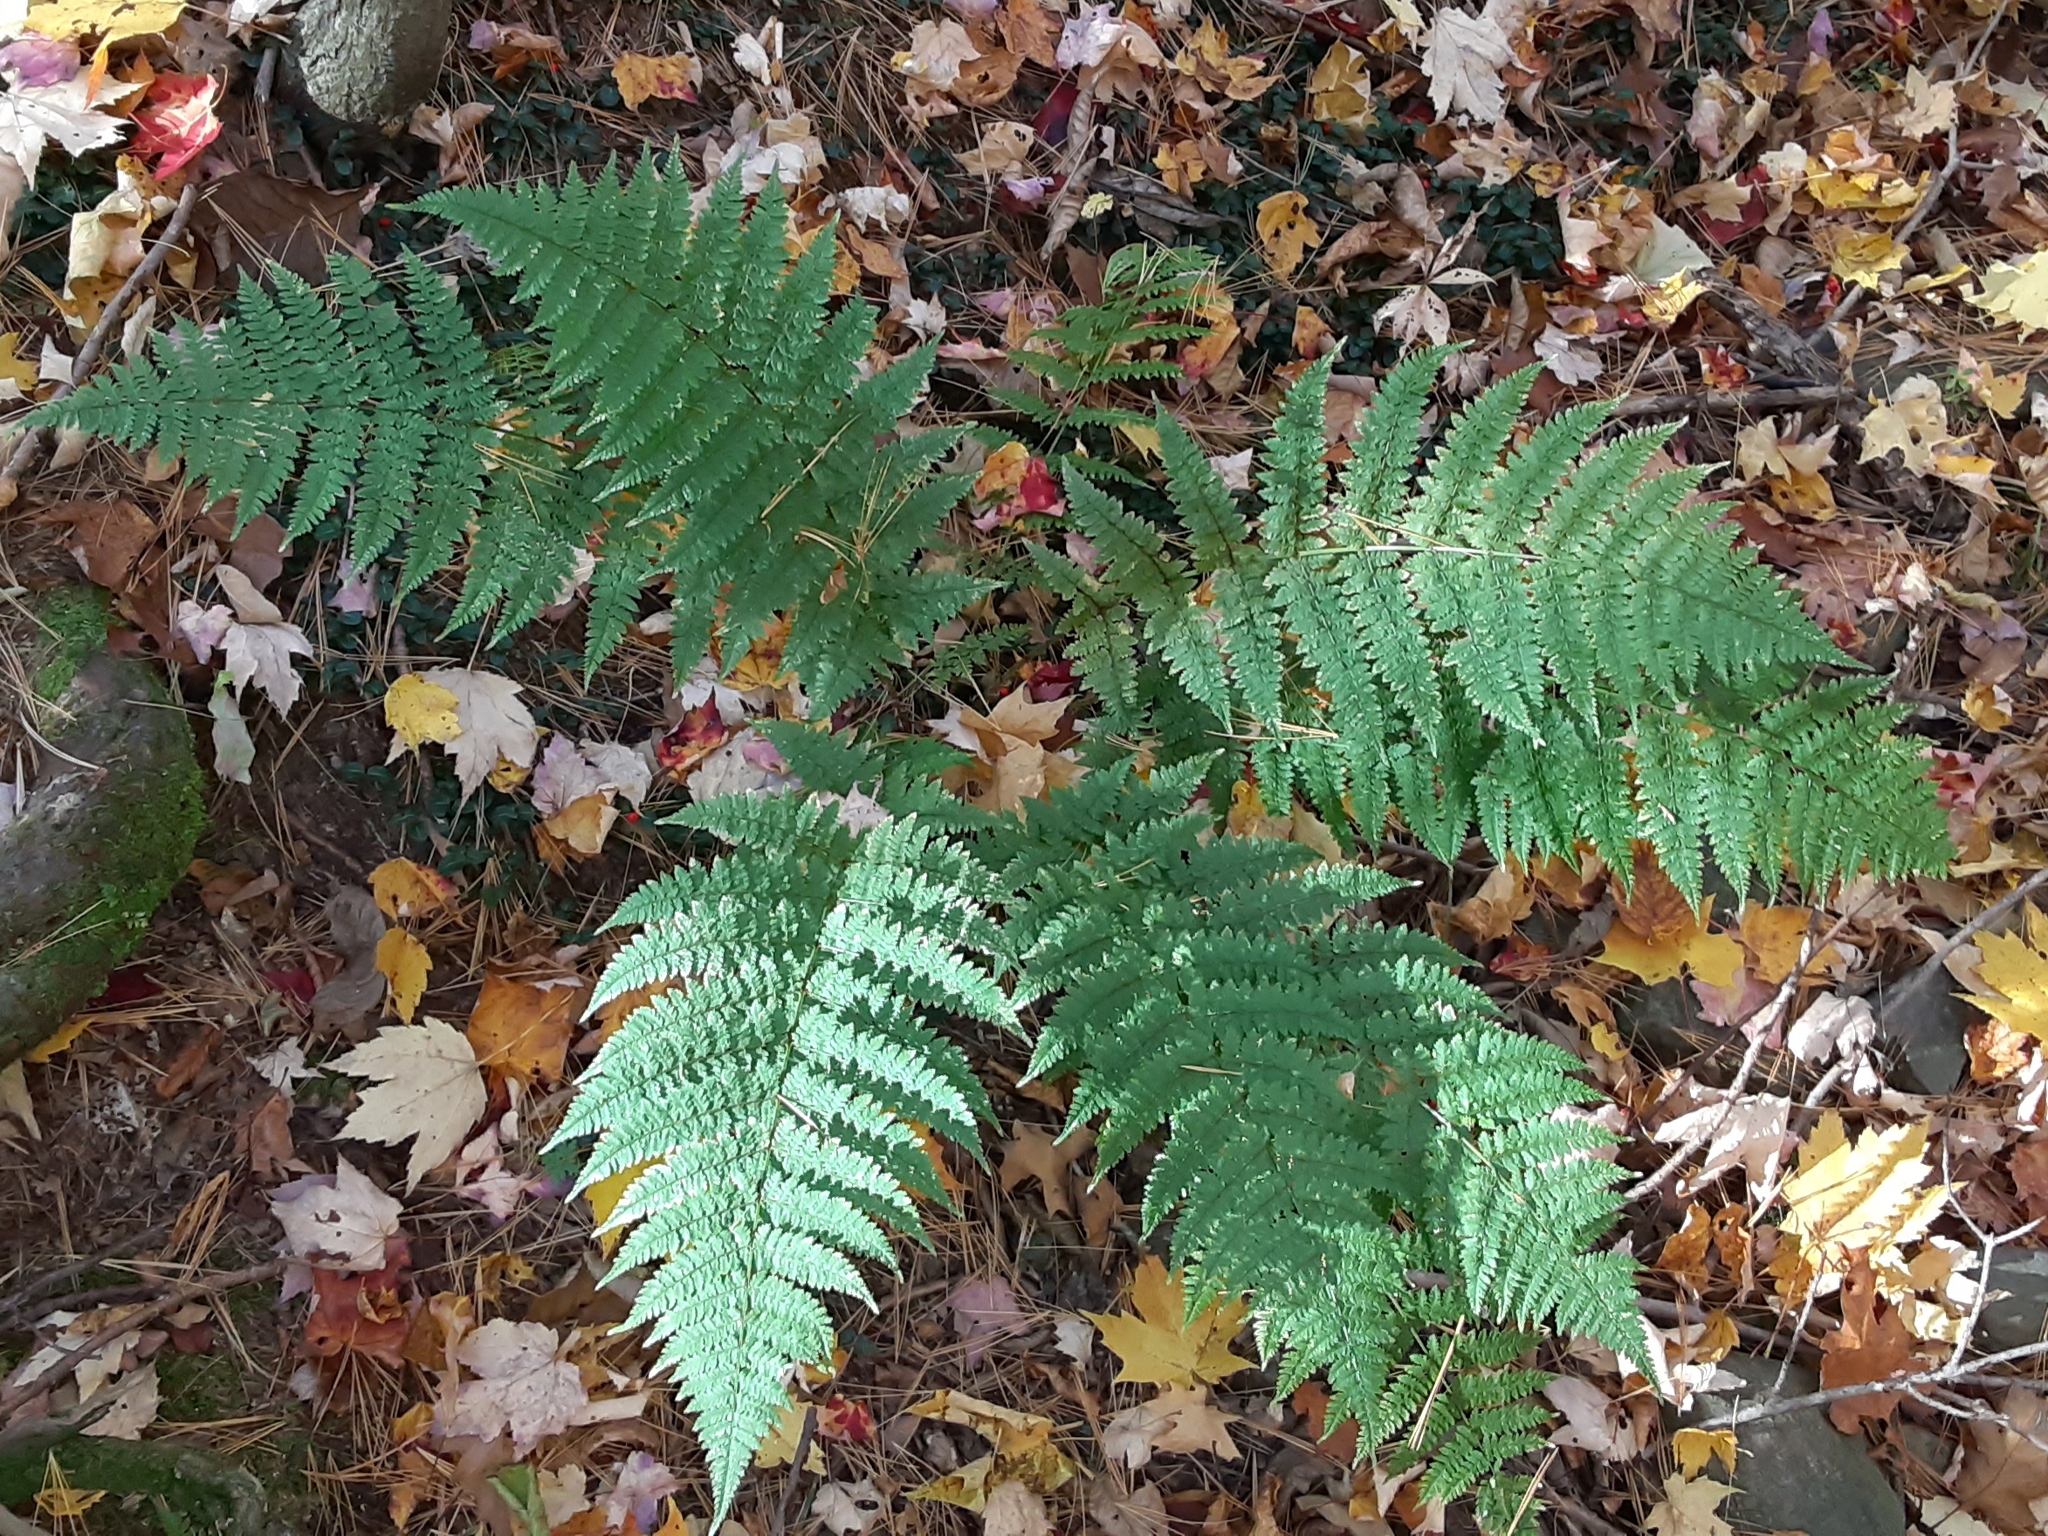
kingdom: Plantae
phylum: Tracheophyta
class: Polypodiopsida
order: Polypodiales
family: Dryopteridaceae
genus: Dryopteris
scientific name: Dryopteris intermedia
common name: Evergreen wood fern
